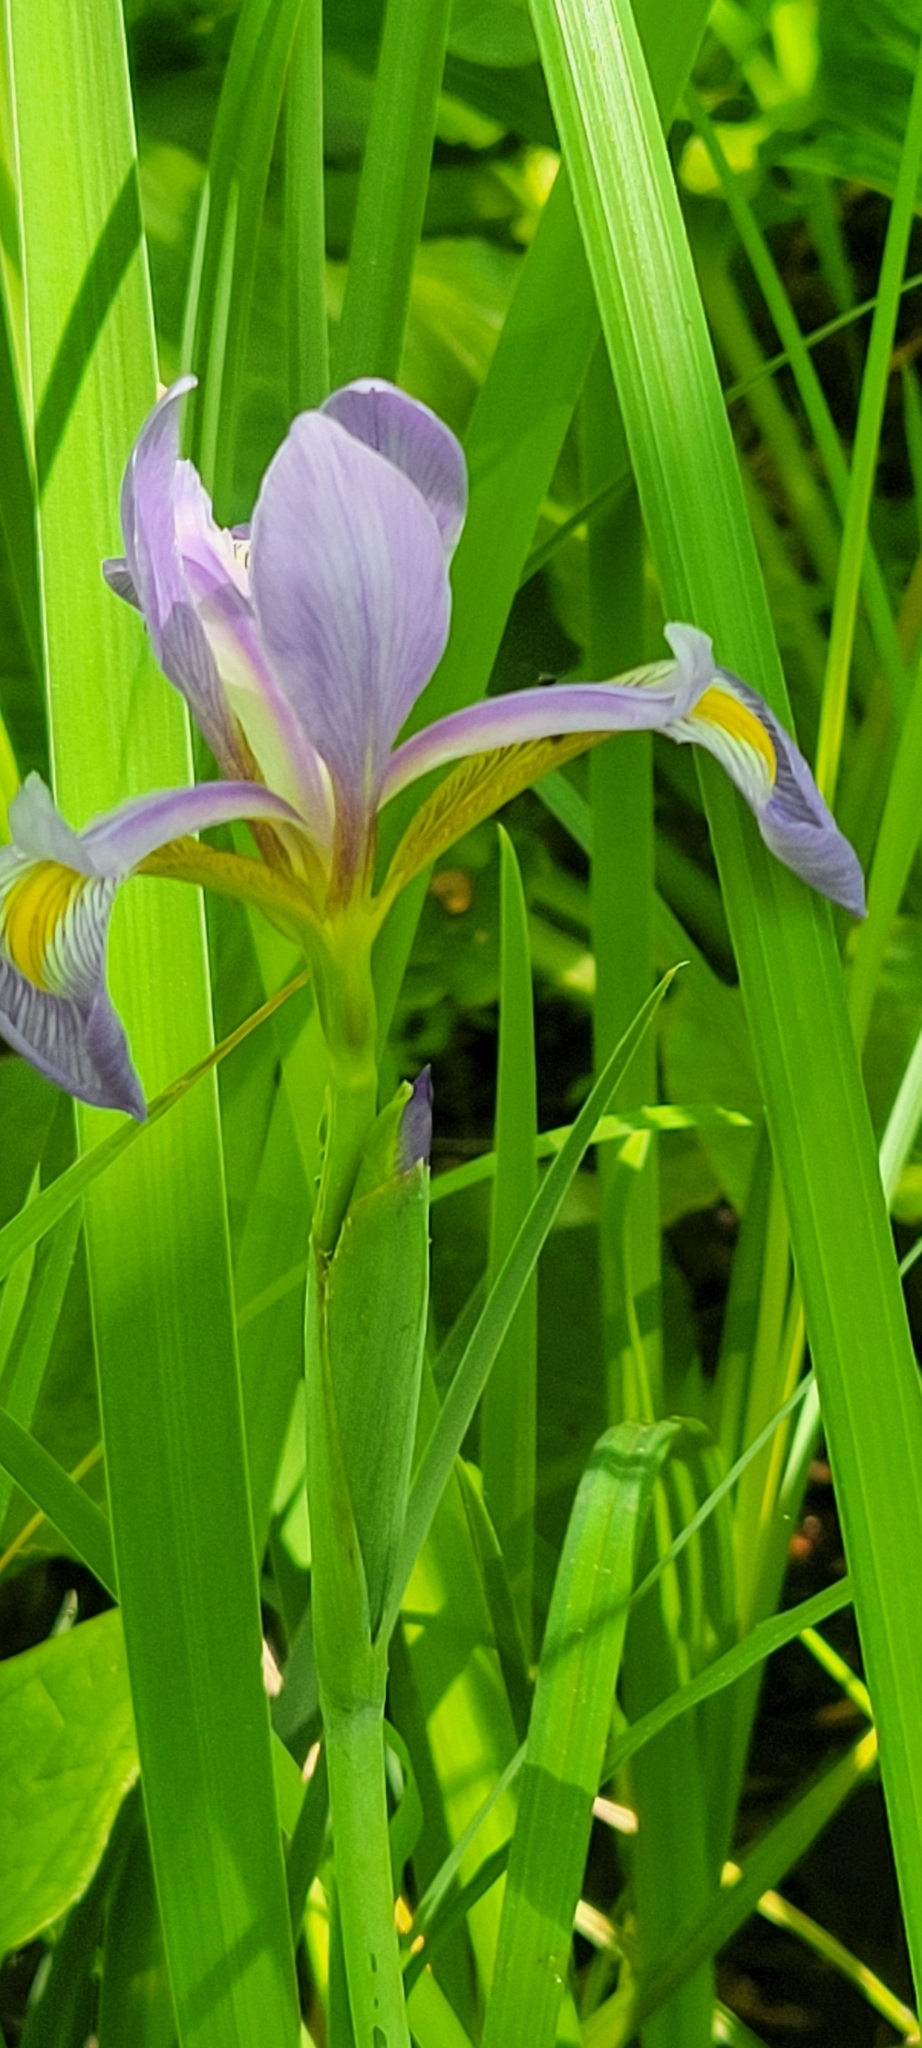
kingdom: Plantae
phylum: Tracheophyta
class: Liliopsida
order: Asparagales
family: Iridaceae
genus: Iris
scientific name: Iris virginica
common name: Southern blue flag
